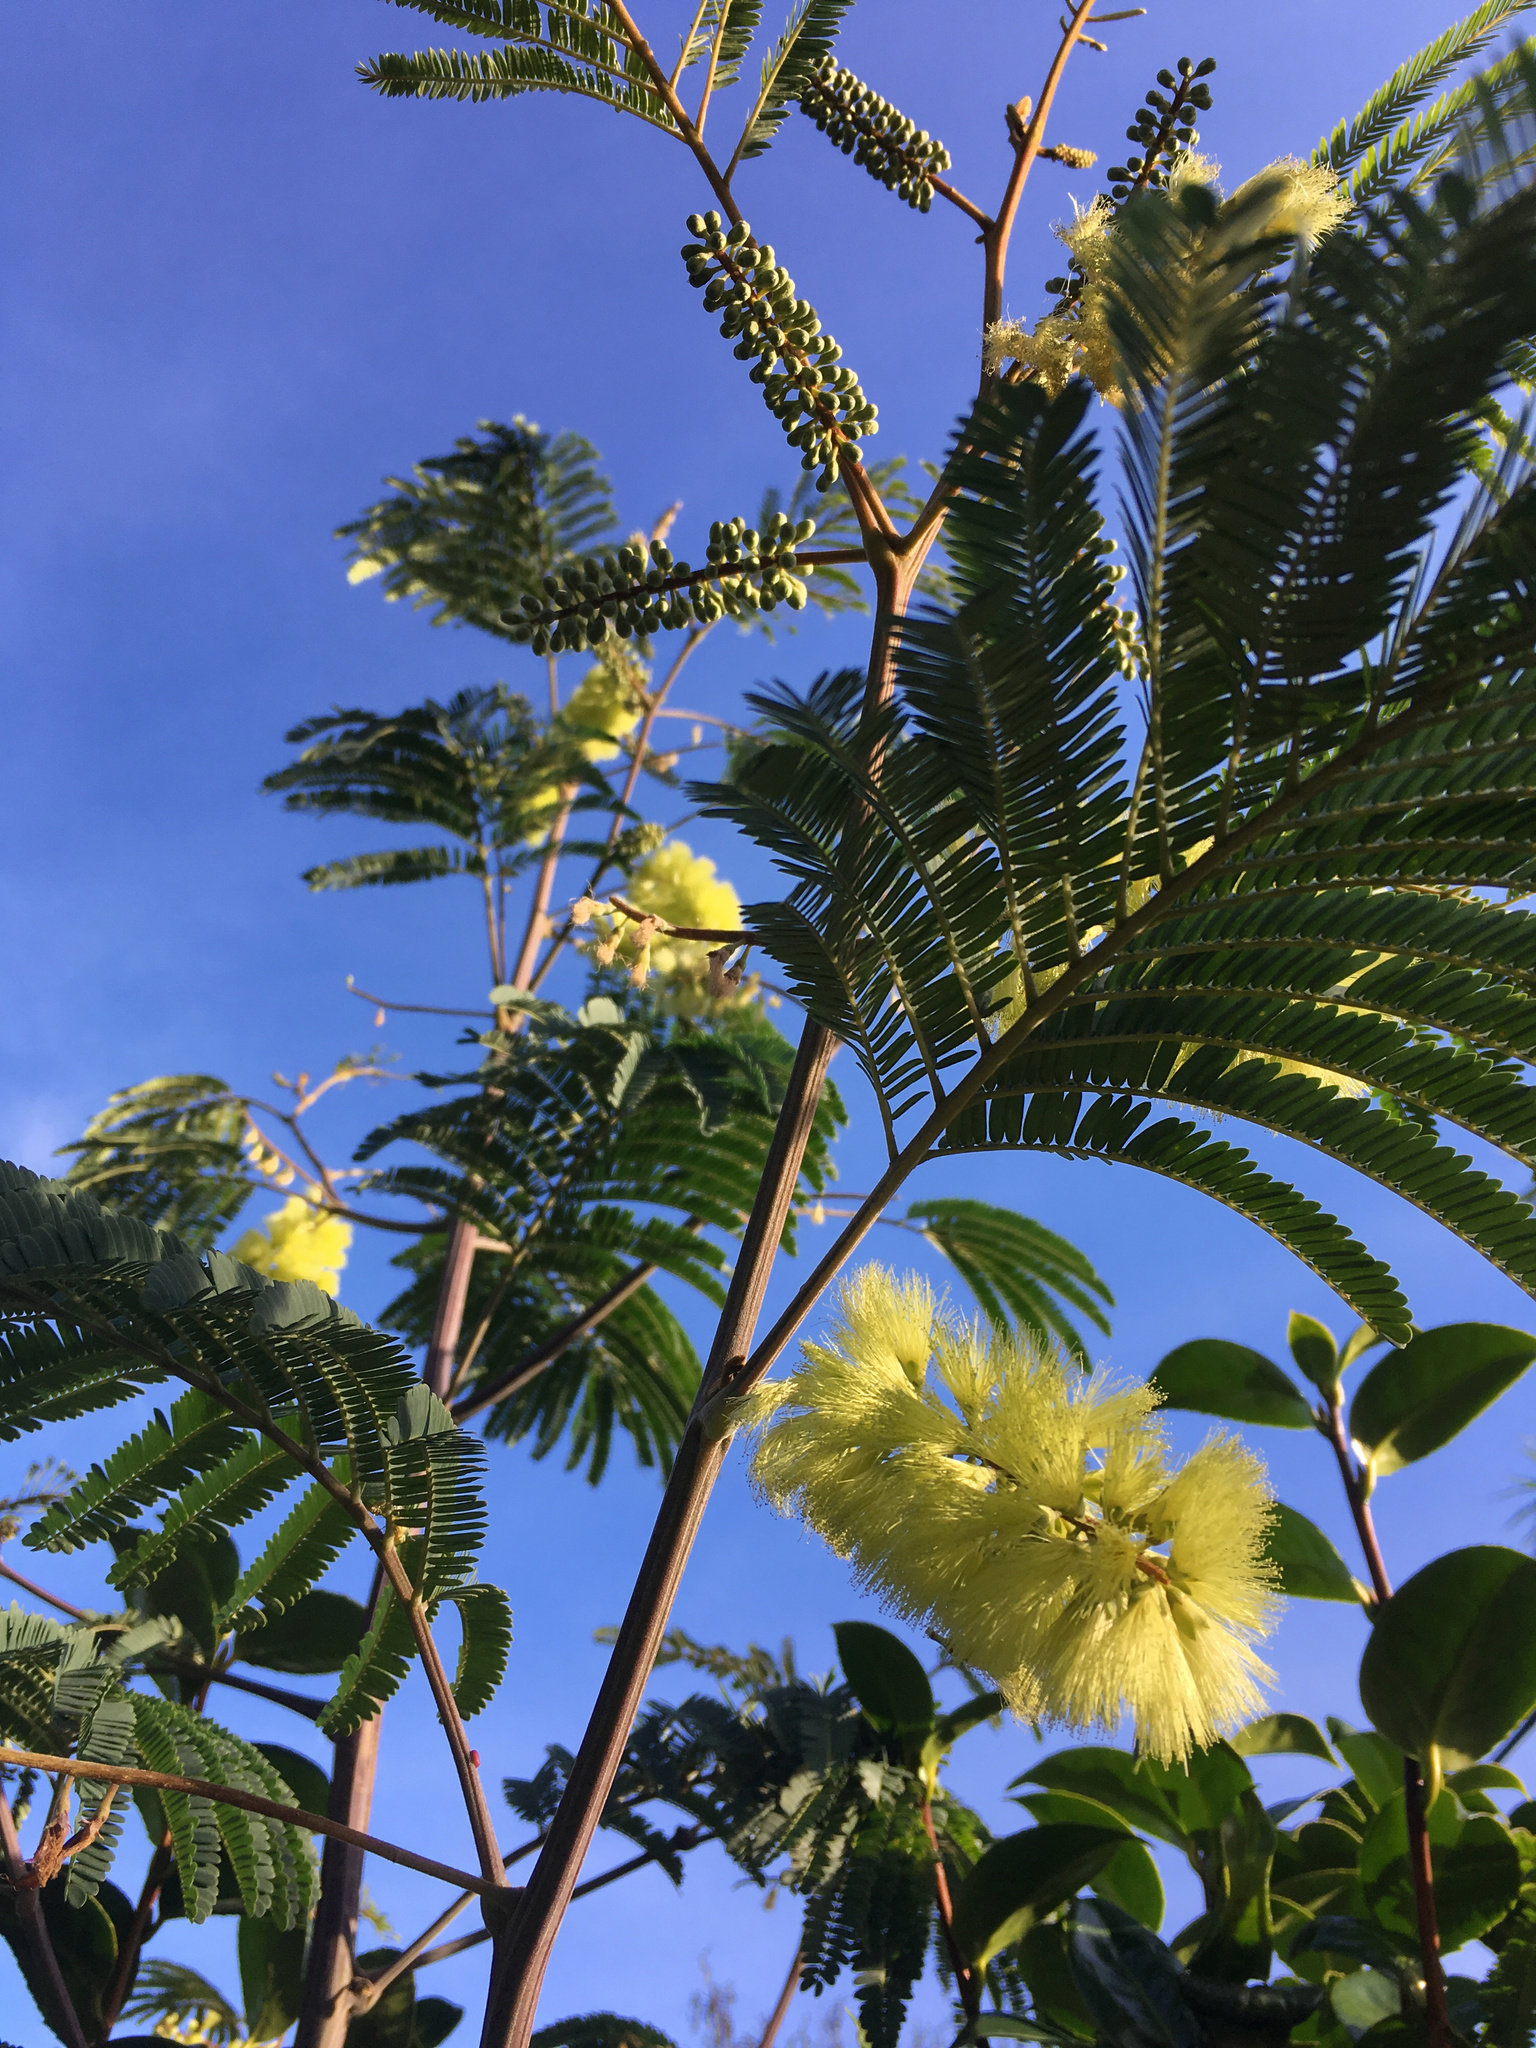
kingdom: Plantae
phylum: Tracheophyta
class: Magnoliopsida
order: Fabales
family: Fabaceae
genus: Paraserianthes
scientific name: Paraserianthes lophantha
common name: Plume albizia
